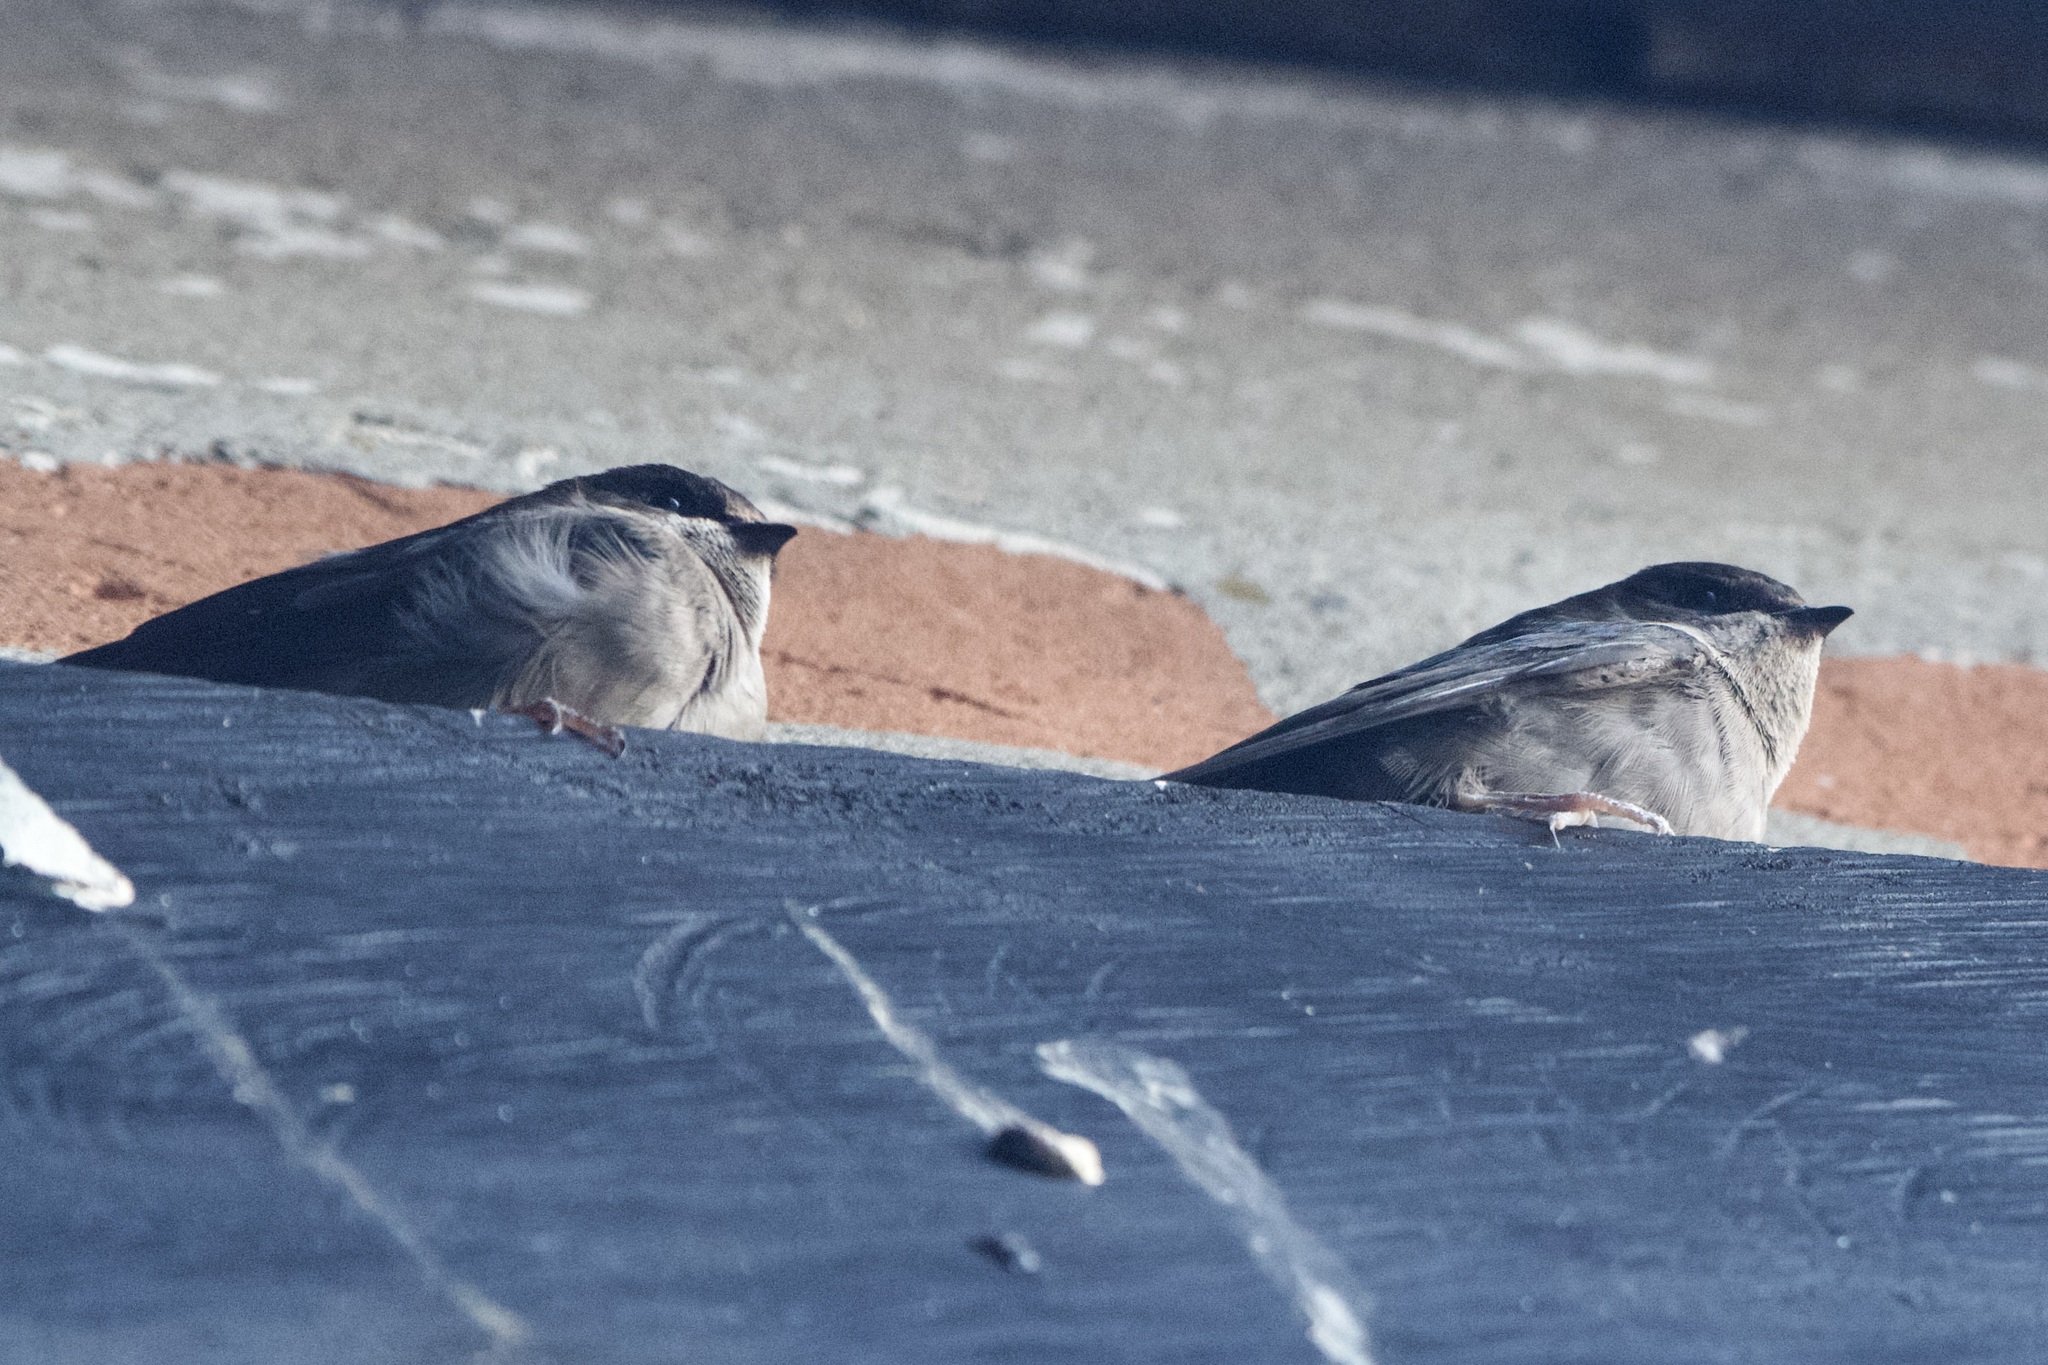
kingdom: Animalia
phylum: Chordata
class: Aves
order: Passeriformes
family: Hirundinidae
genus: Notiochelidon
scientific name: Notiochelidon murina
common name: Brown-bellied swallow
